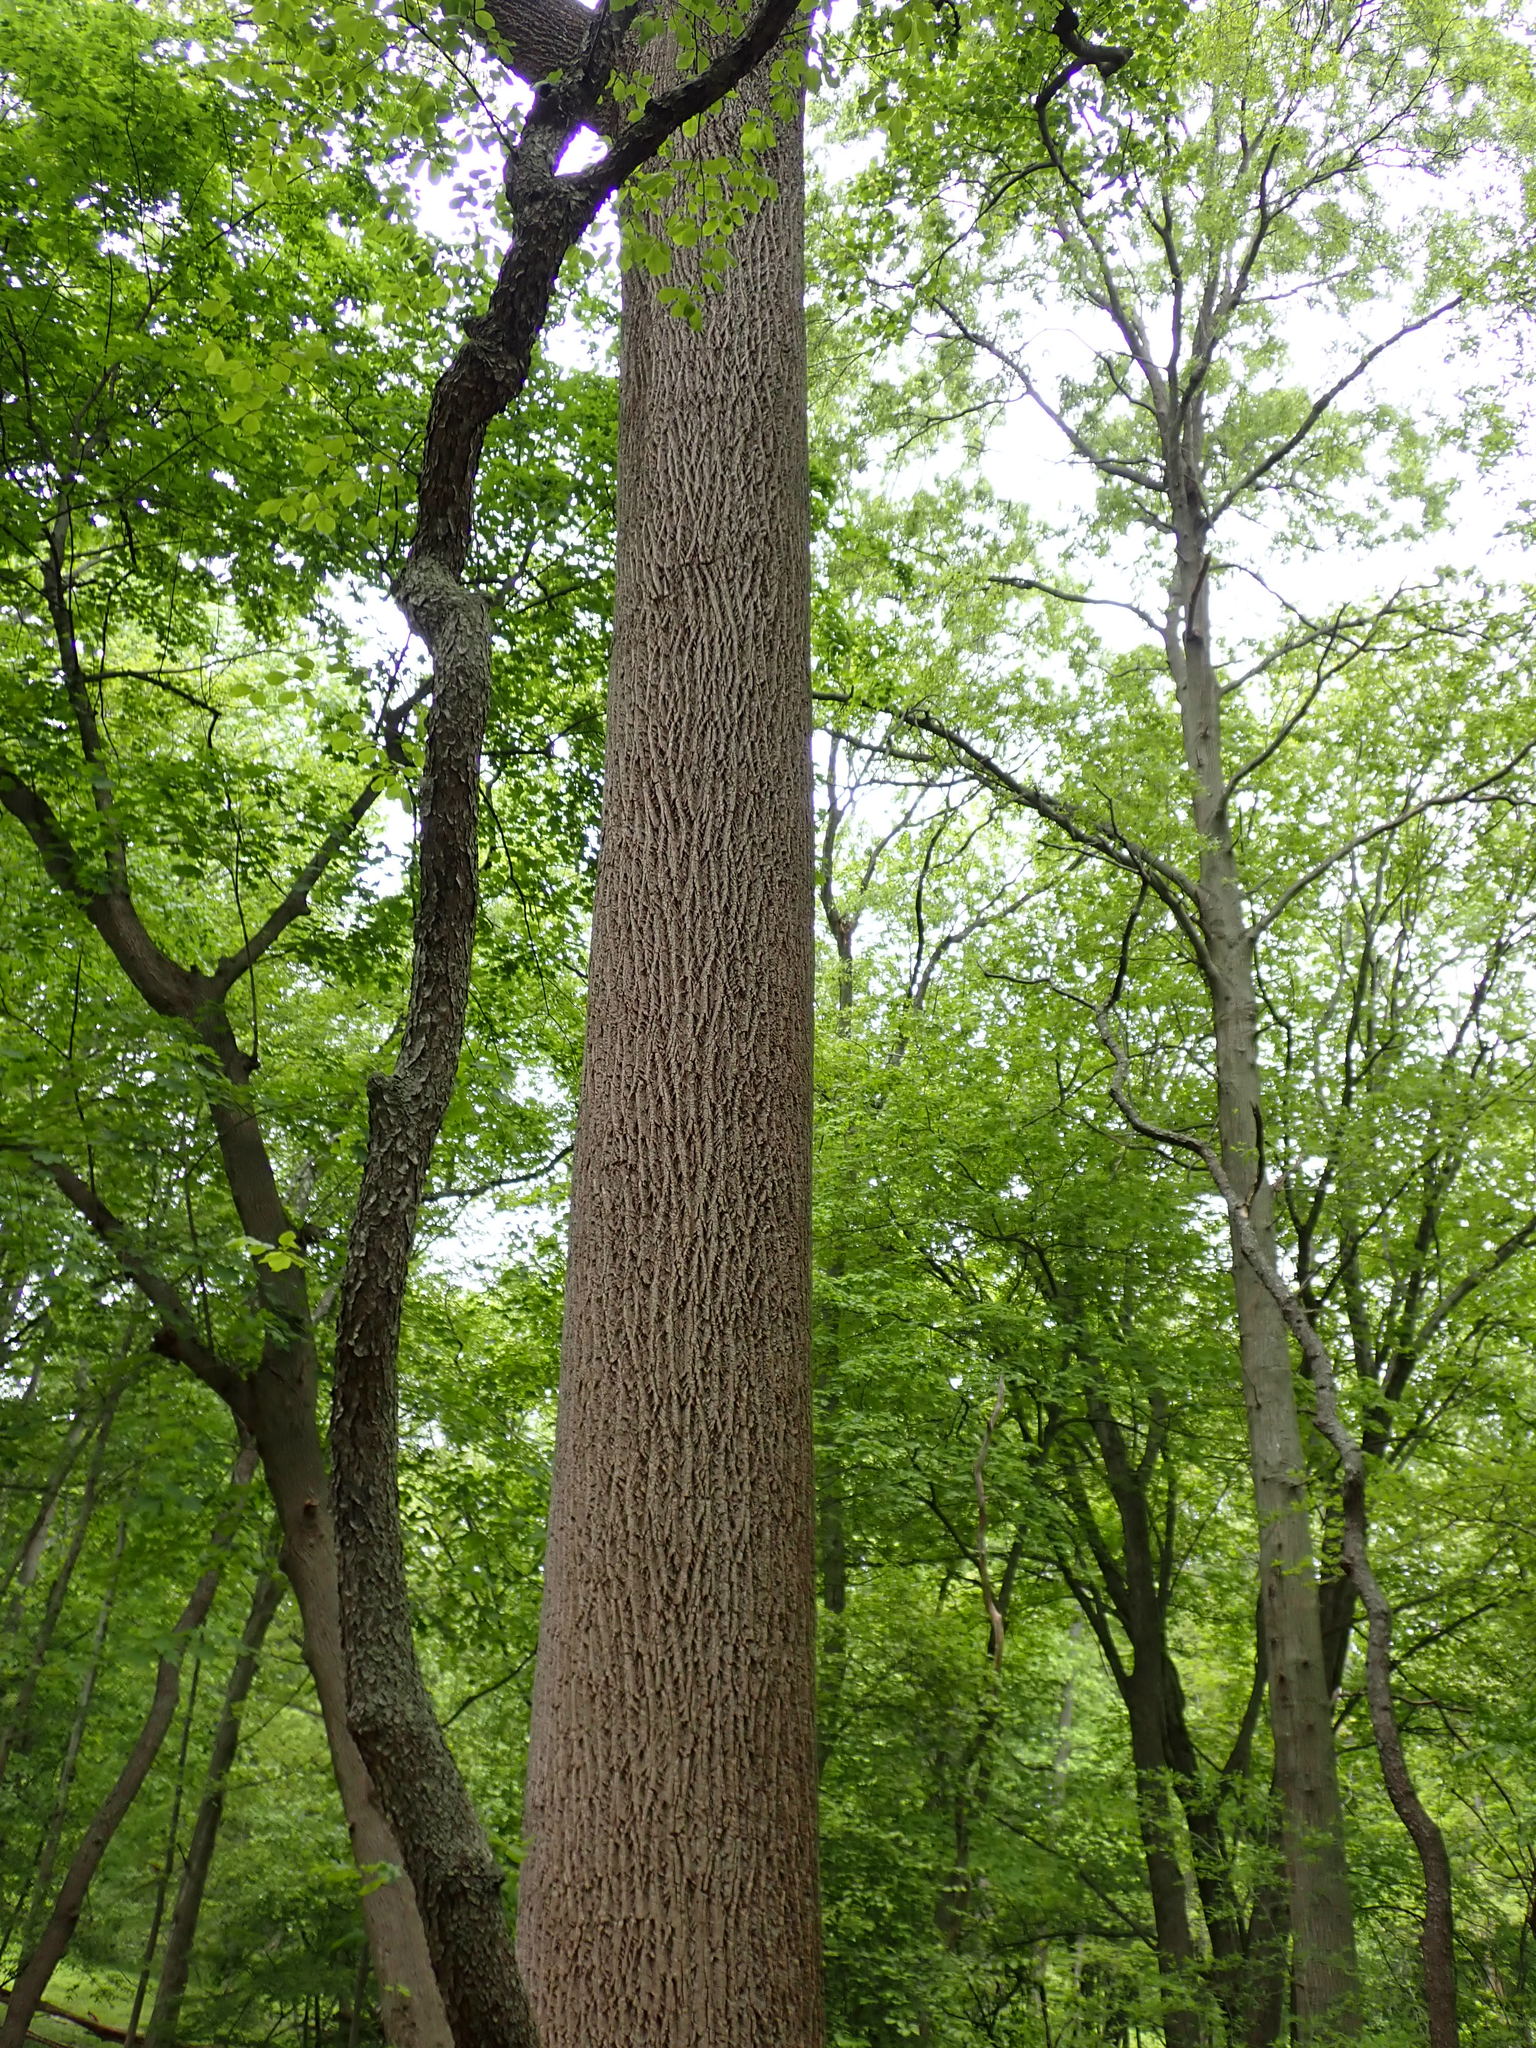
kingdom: Plantae
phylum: Tracheophyta
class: Magnoliopsida
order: Magnoliales
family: Magnoliaceae
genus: Liriodendron
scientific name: Liriodendron tulipifera
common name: Tulip tree
